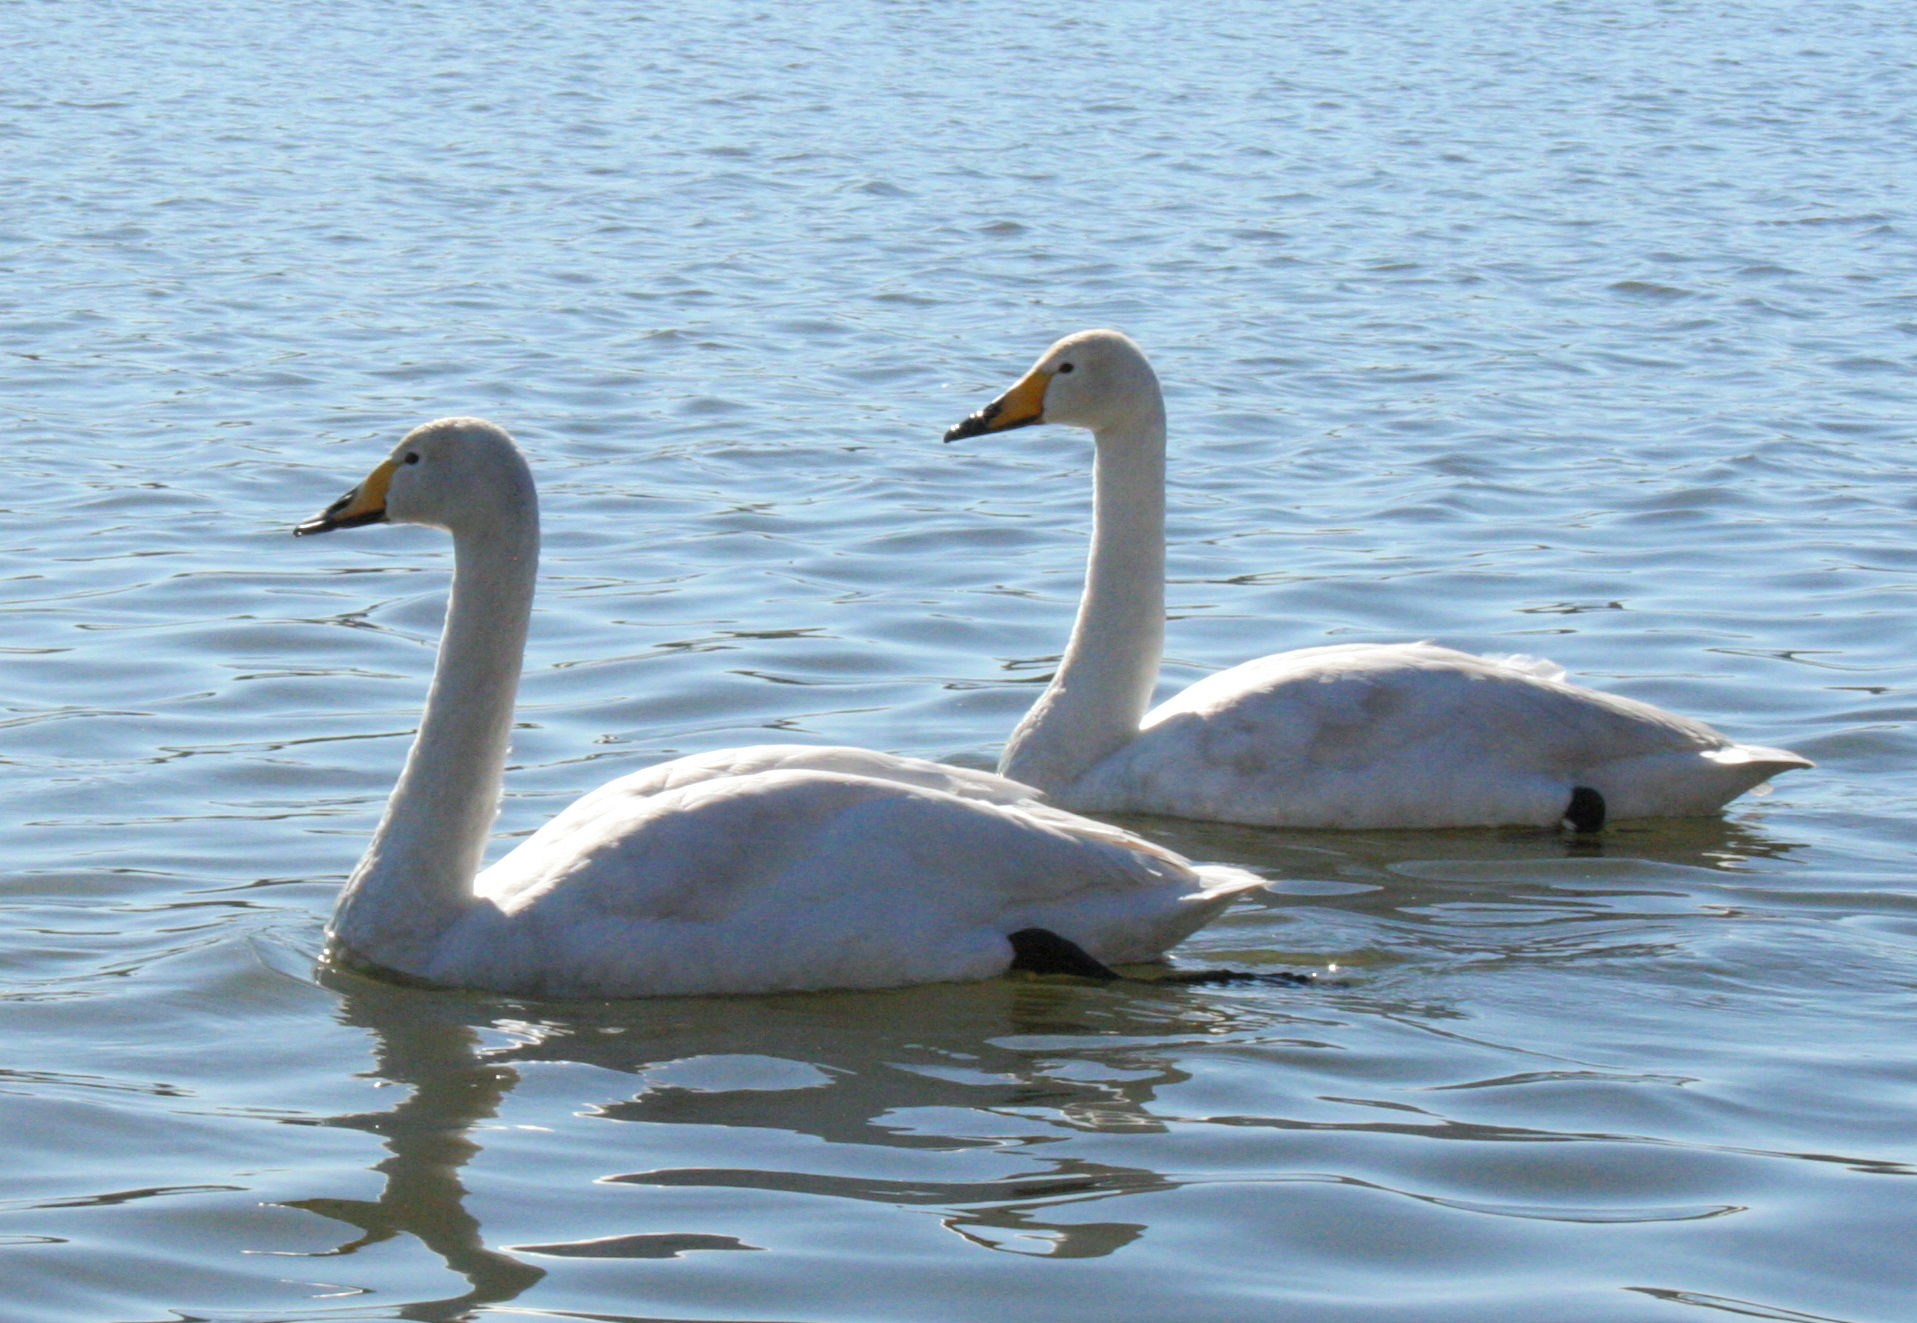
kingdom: Animalia
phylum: Chordata
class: Aves
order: Anseriformes
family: Anatidae
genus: Cygnus
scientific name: Cygnus cygnus
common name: Whooper swan
